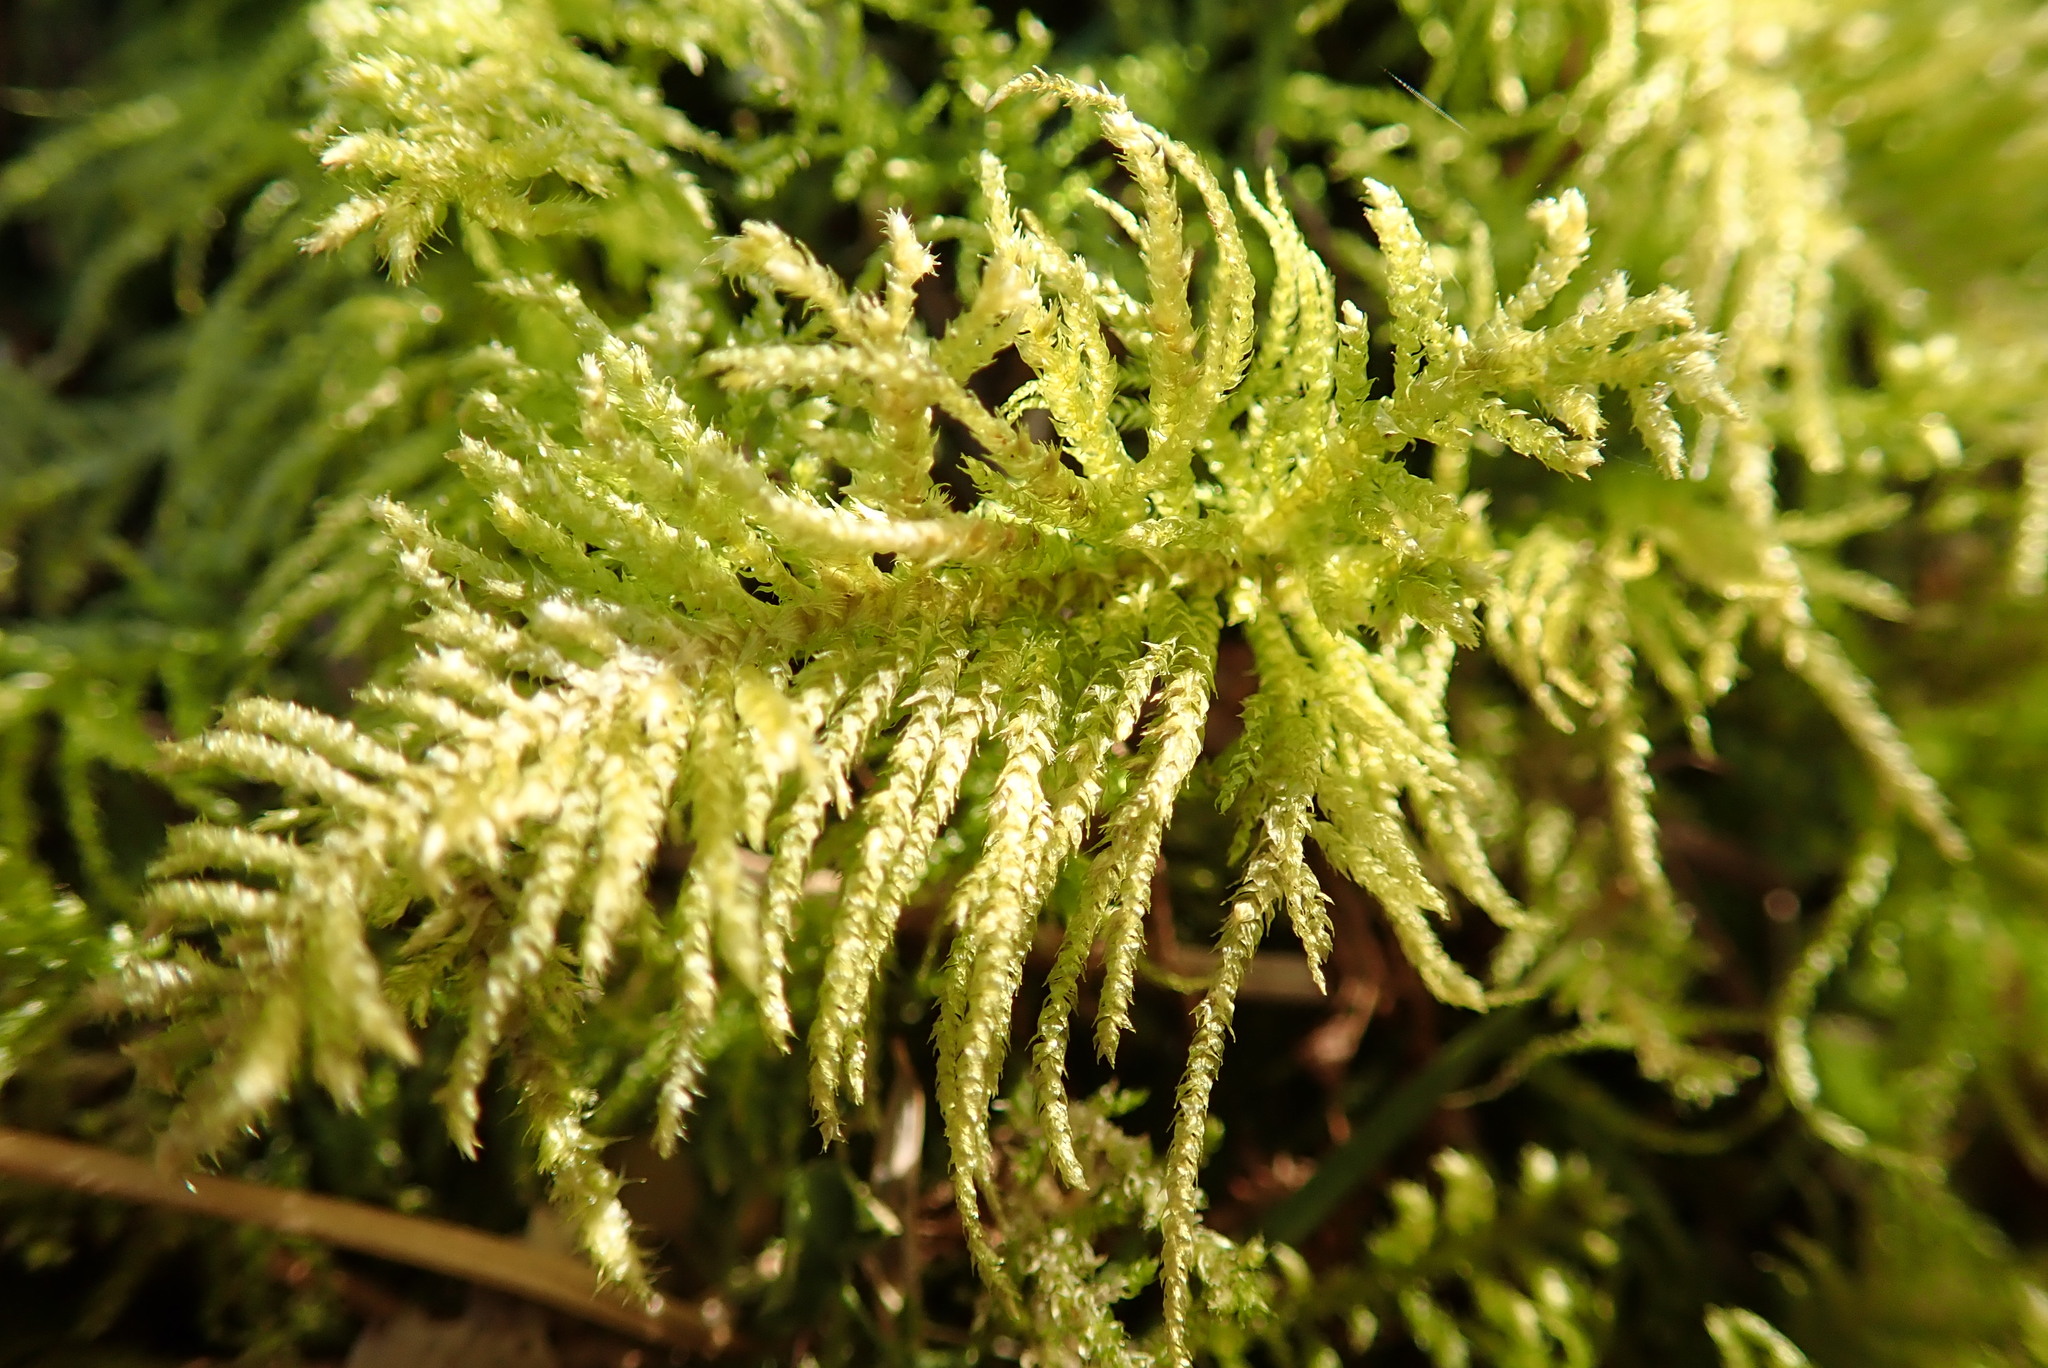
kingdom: Plantae
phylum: Bryophyta
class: Bryopsida
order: Hypnales
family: Brachytheciaceae
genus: Kindbergia
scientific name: Kindbergia oregana
